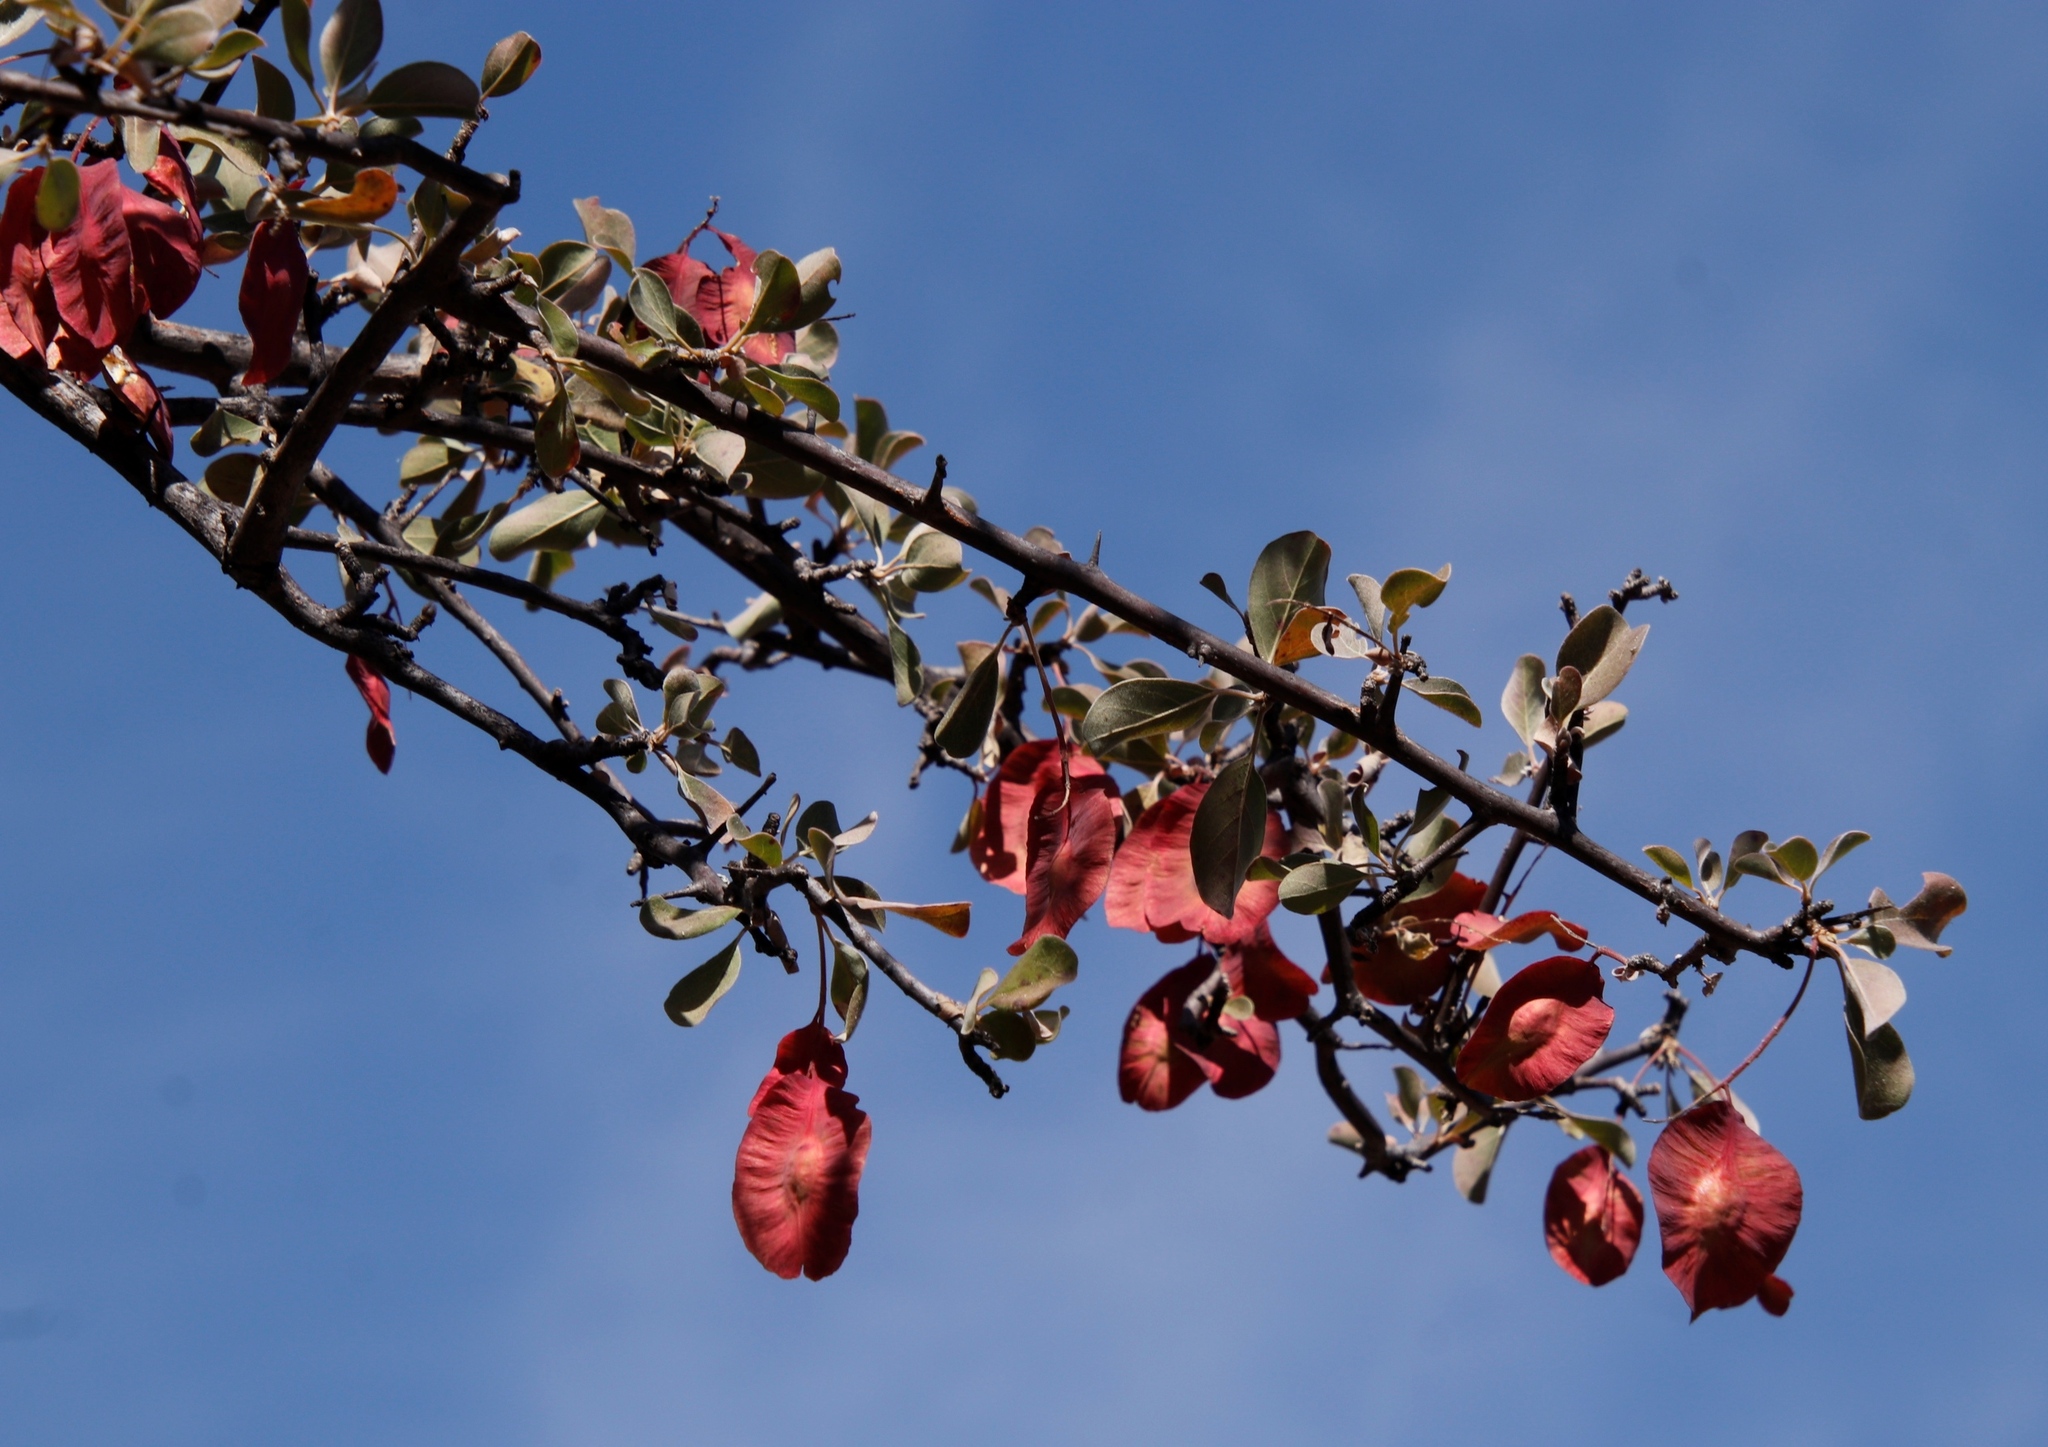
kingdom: Plantae
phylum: Tracheophyta
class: Magnoliopsida
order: Myrtales
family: Combretaceae
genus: Terminalia
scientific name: Terminalia prunioides
